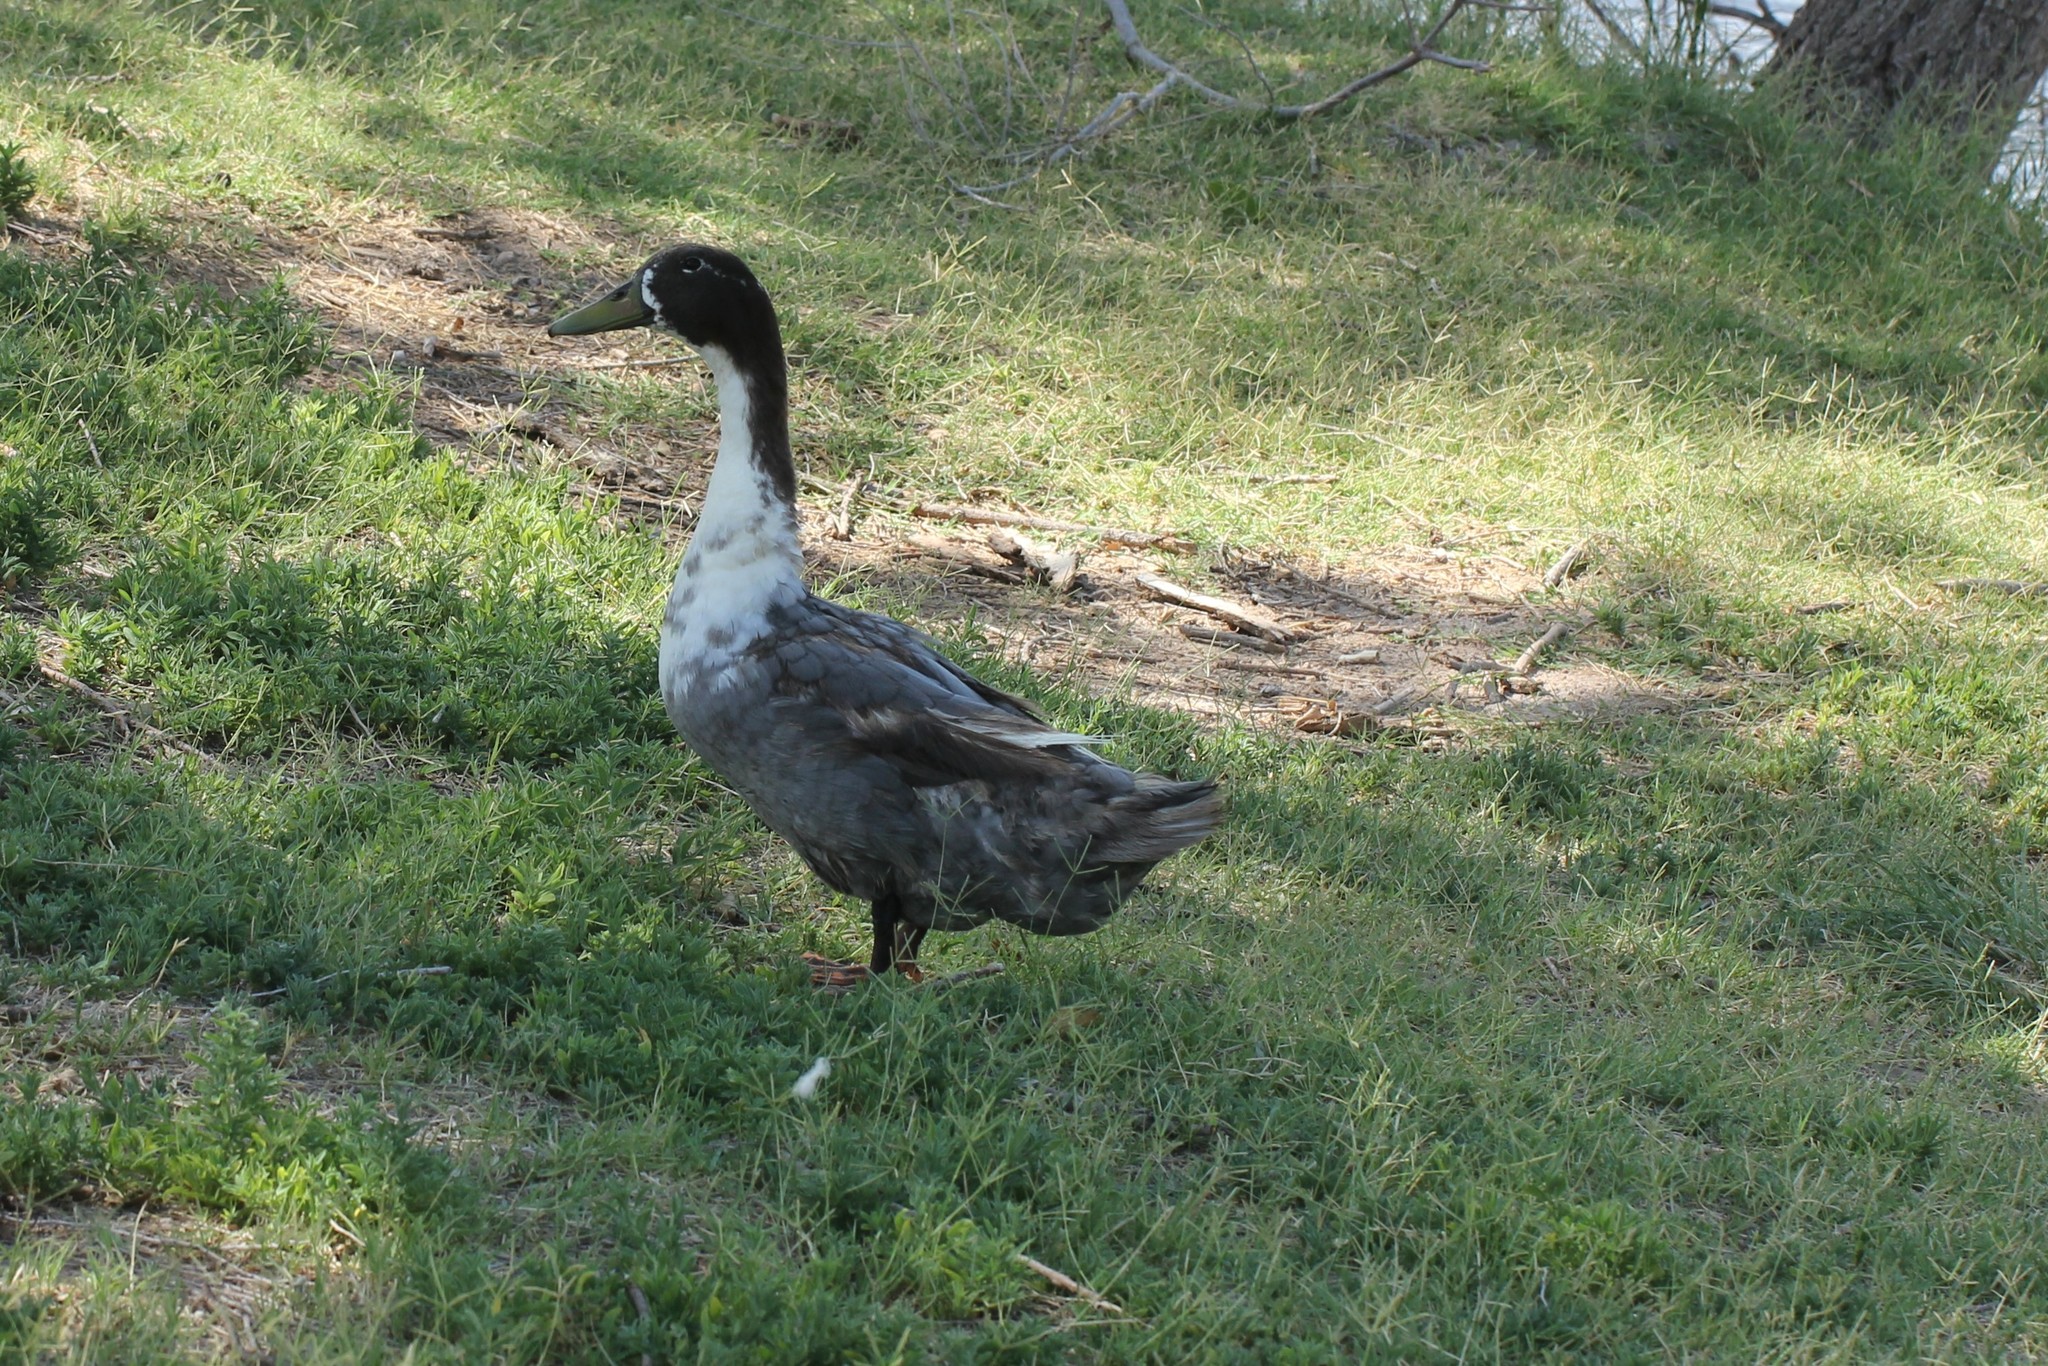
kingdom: Animalia
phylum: Chordata
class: Aves
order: Anseriformes
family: Anatidae
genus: Anas
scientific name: Anas platyrhynchos
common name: Mallard
